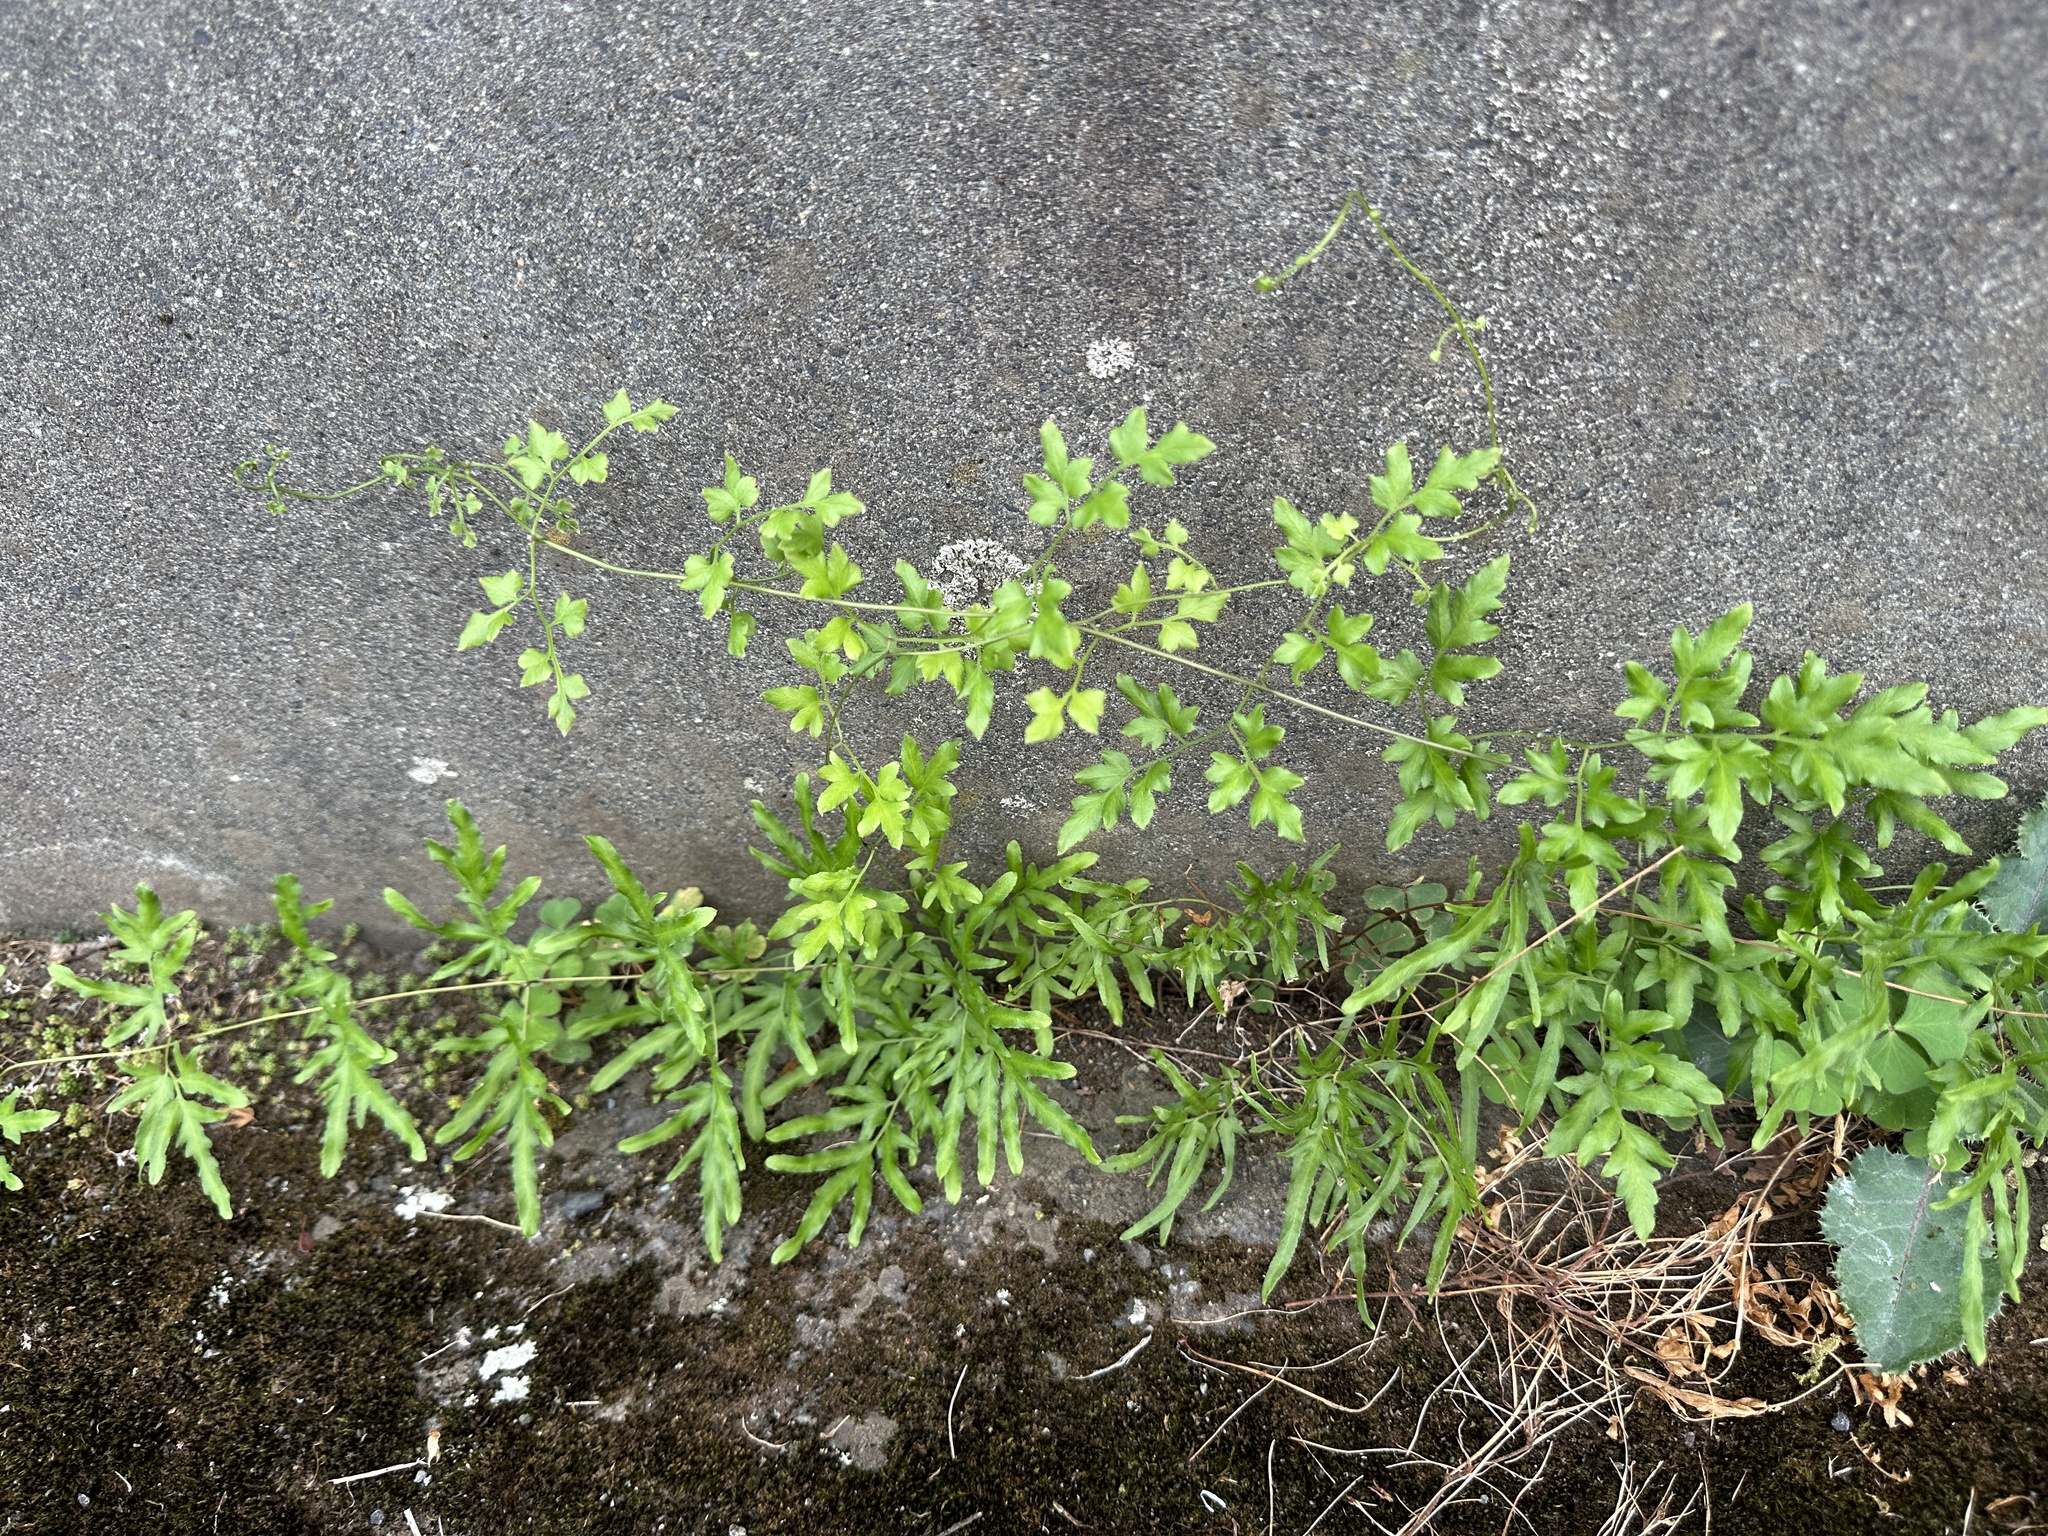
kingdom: Plantae
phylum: Tracheophyta
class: Polypodiopsida
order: Schizaeales
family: Lygodiaceae
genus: Lygodium
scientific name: Lygodium japonicum
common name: Japanese climbing fern
